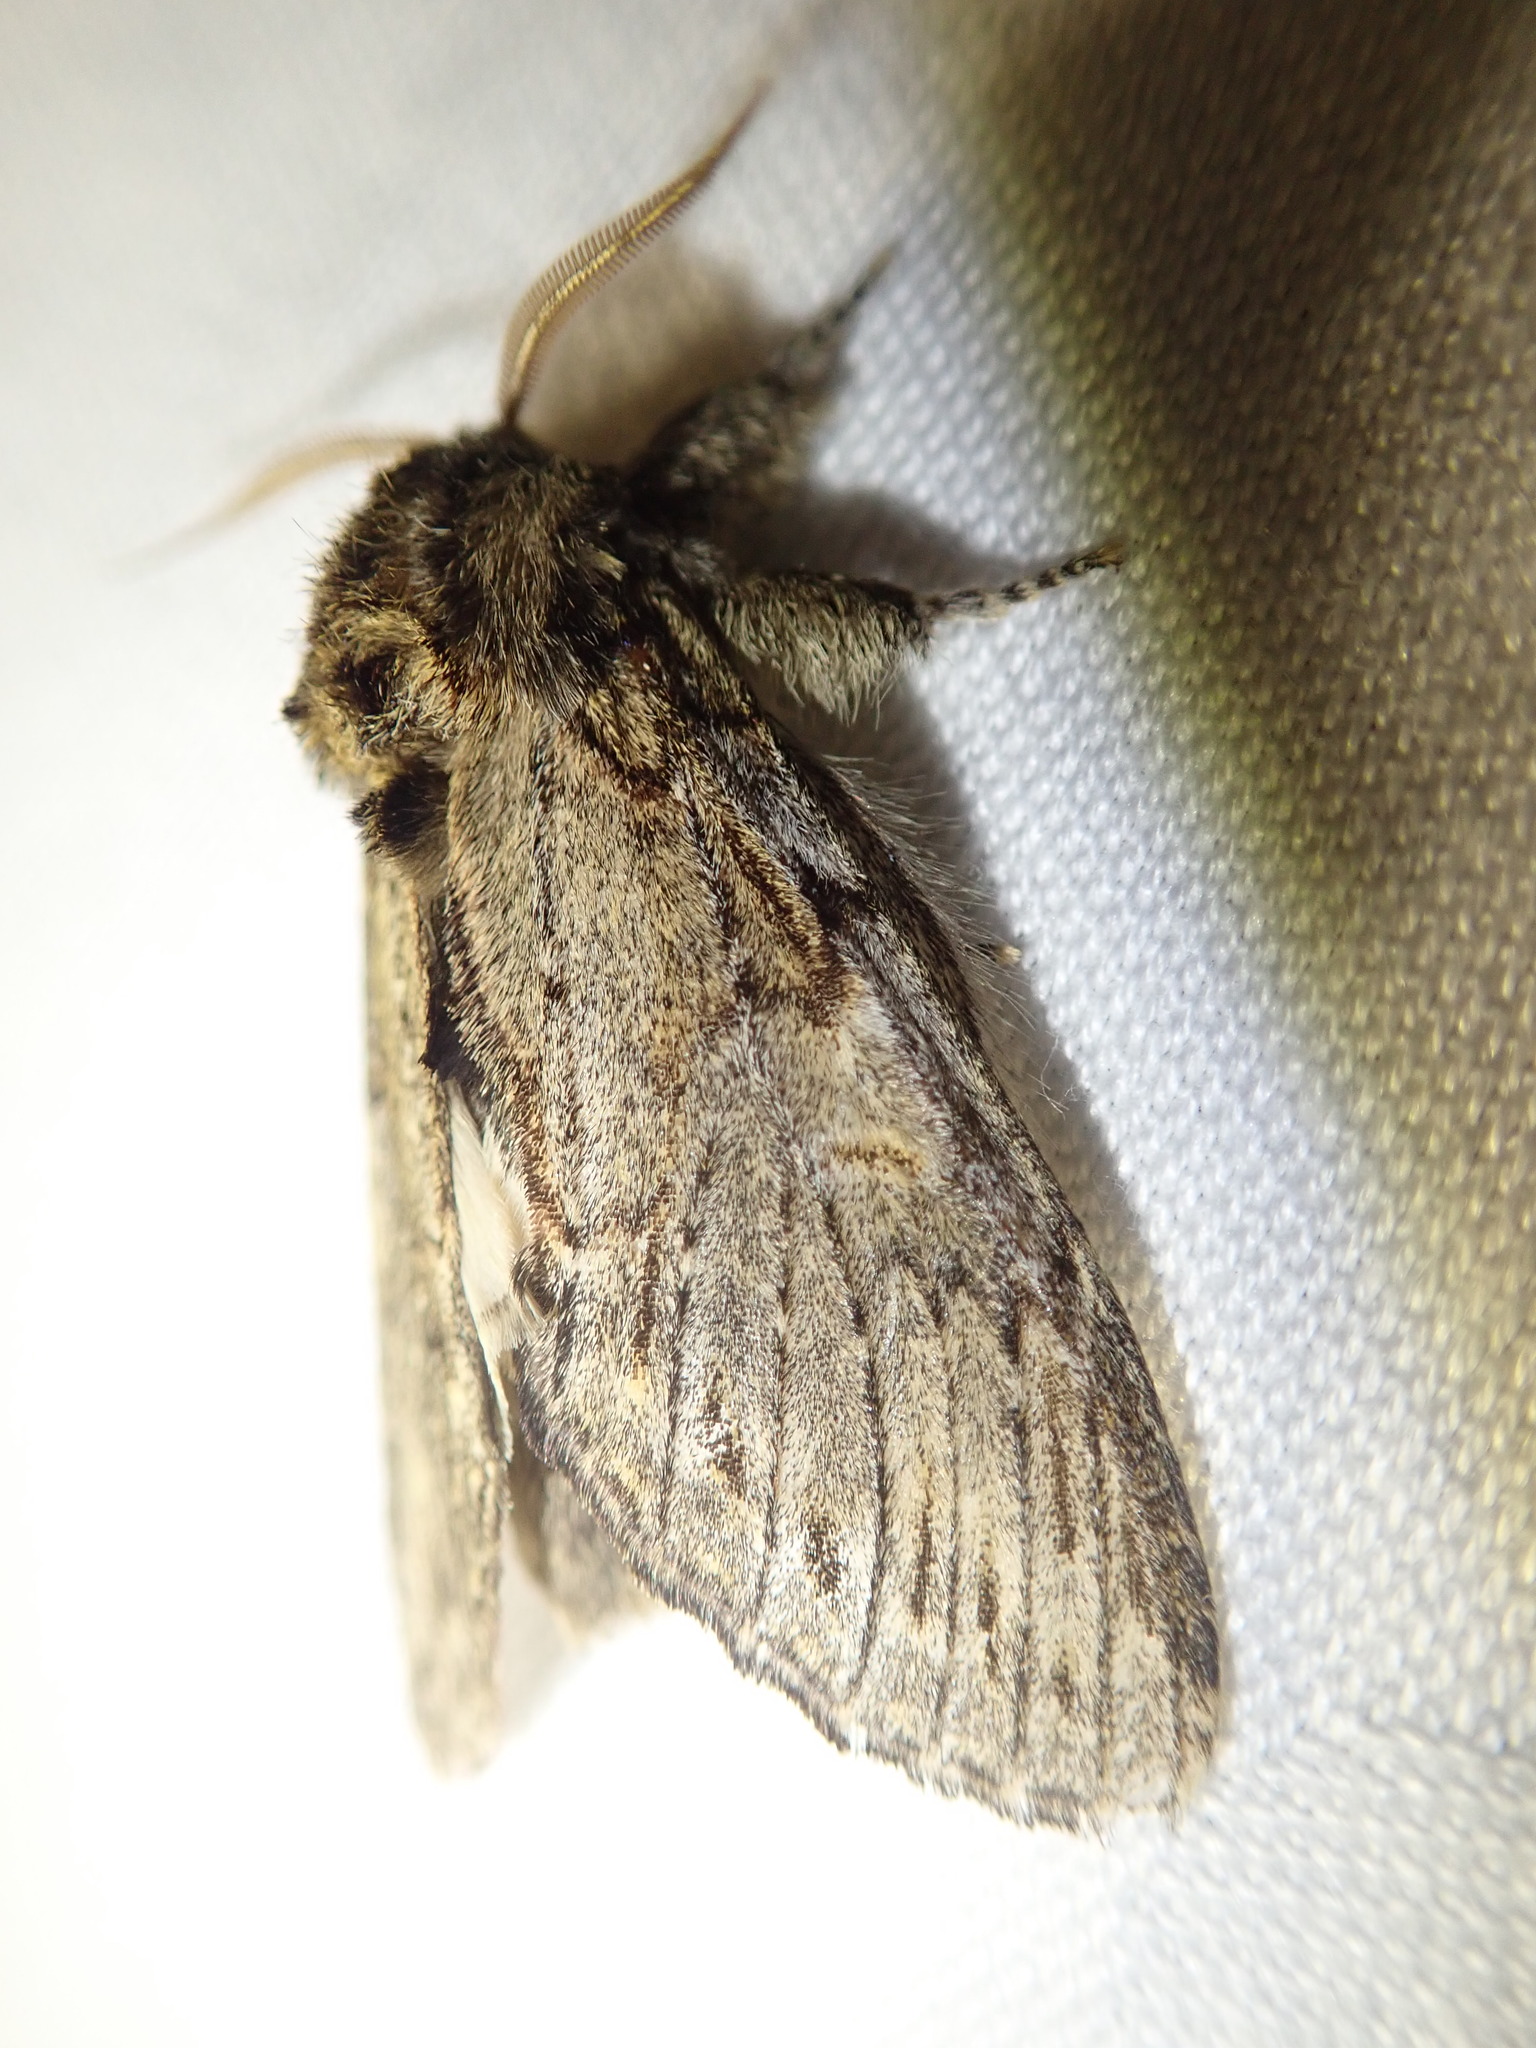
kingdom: Animalia
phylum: Arthropoda
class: Insecta
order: Lepidoptera
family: Notodontidae
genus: Peridea
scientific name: Peridea anceps
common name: Great prominent
